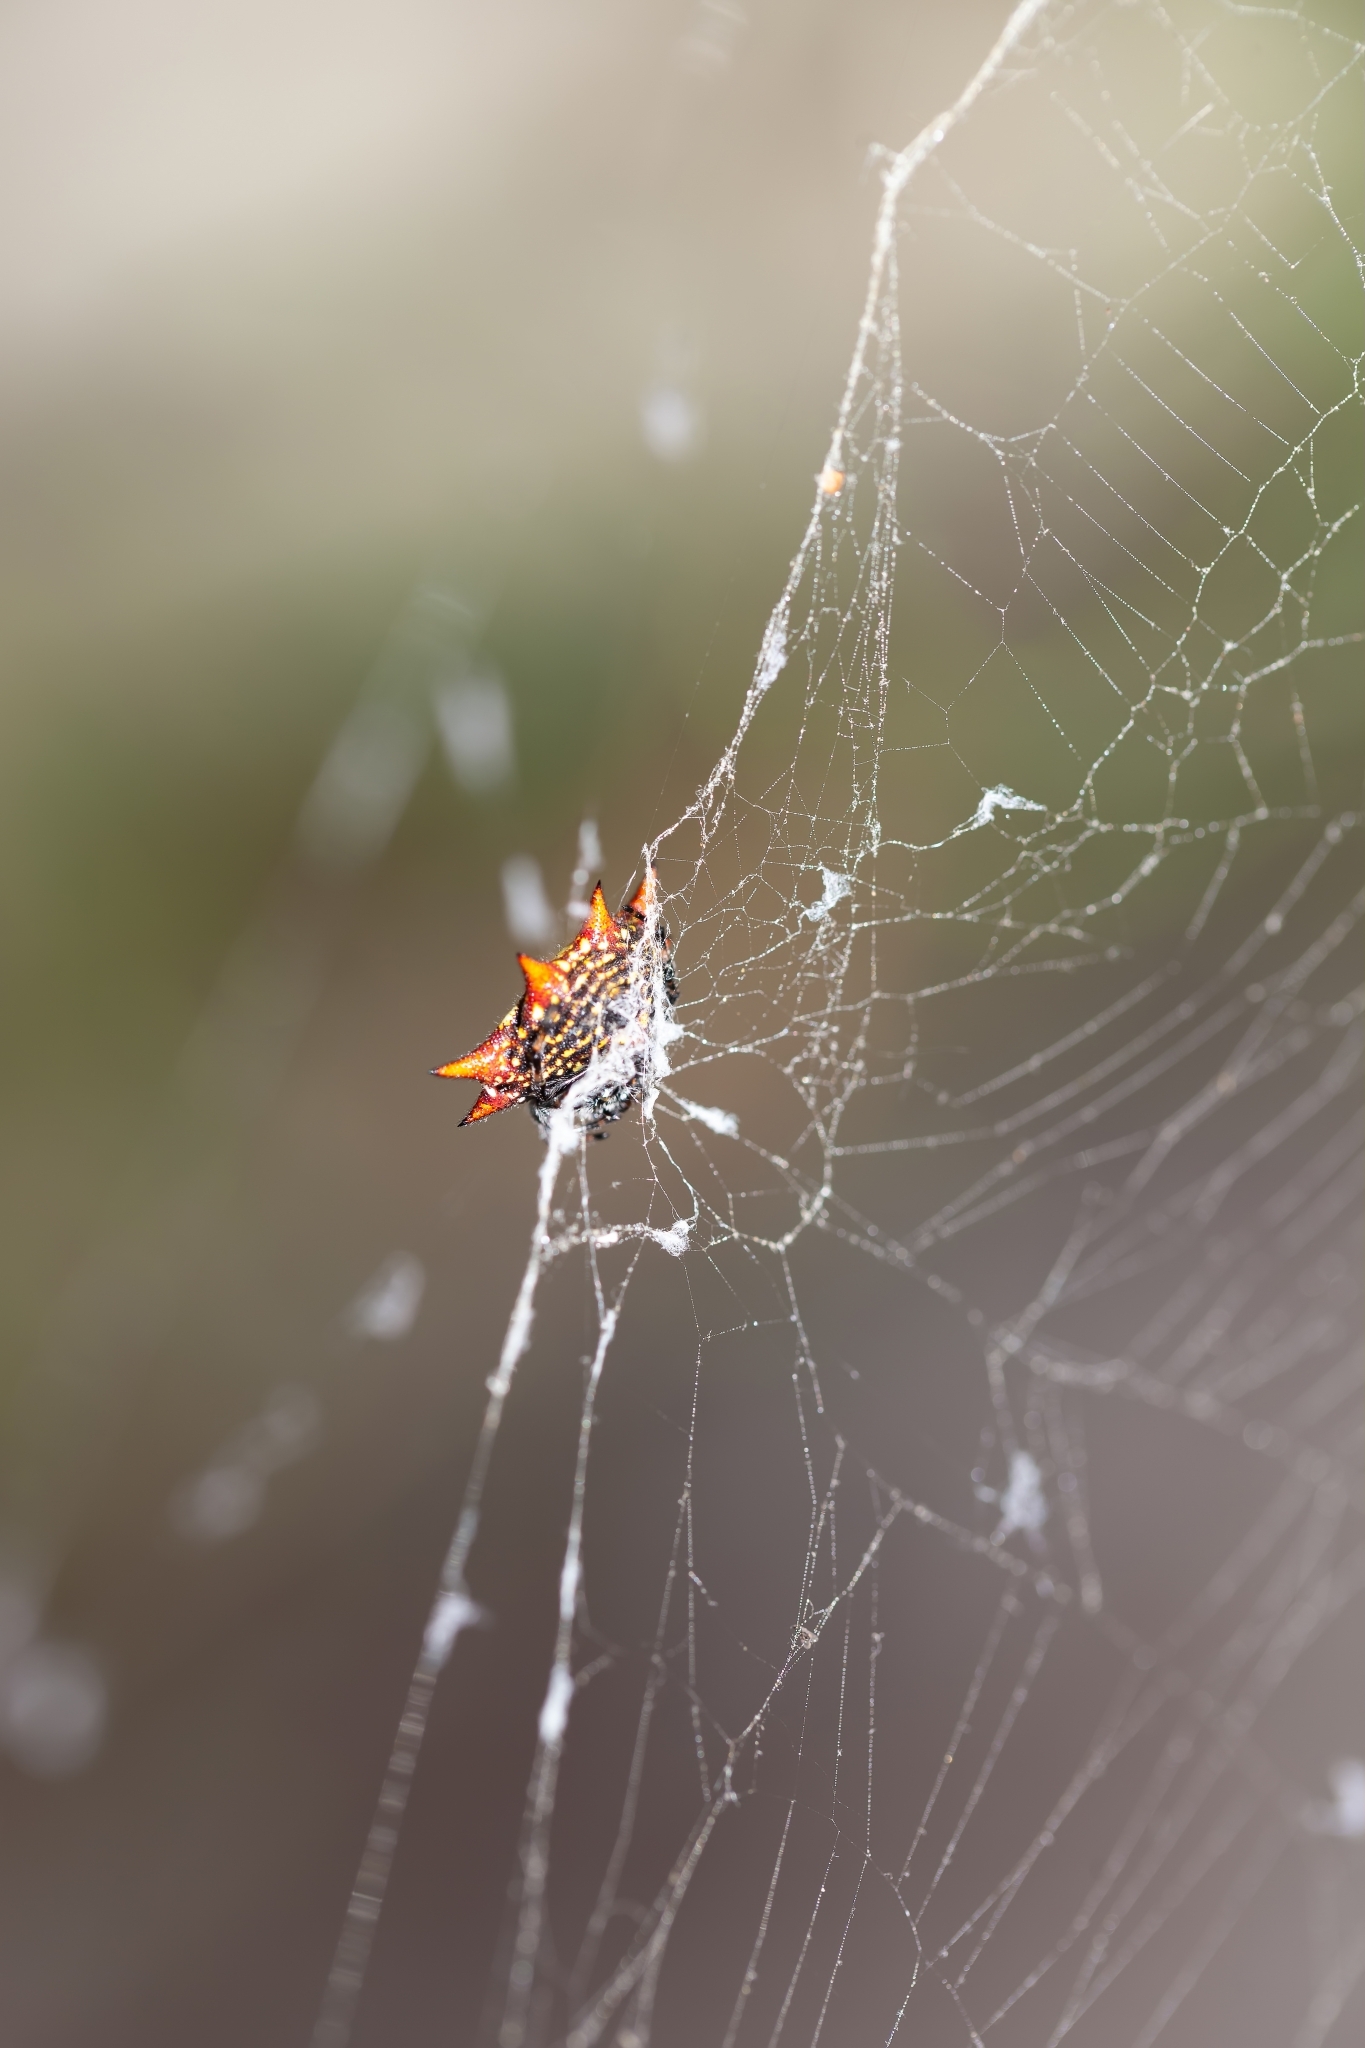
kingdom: Animalia
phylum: Arthropoda
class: Arachnida
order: Araneae
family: Araneidae
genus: Gasteracantha
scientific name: Gasteracantha cancriformis
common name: Orb weavers
